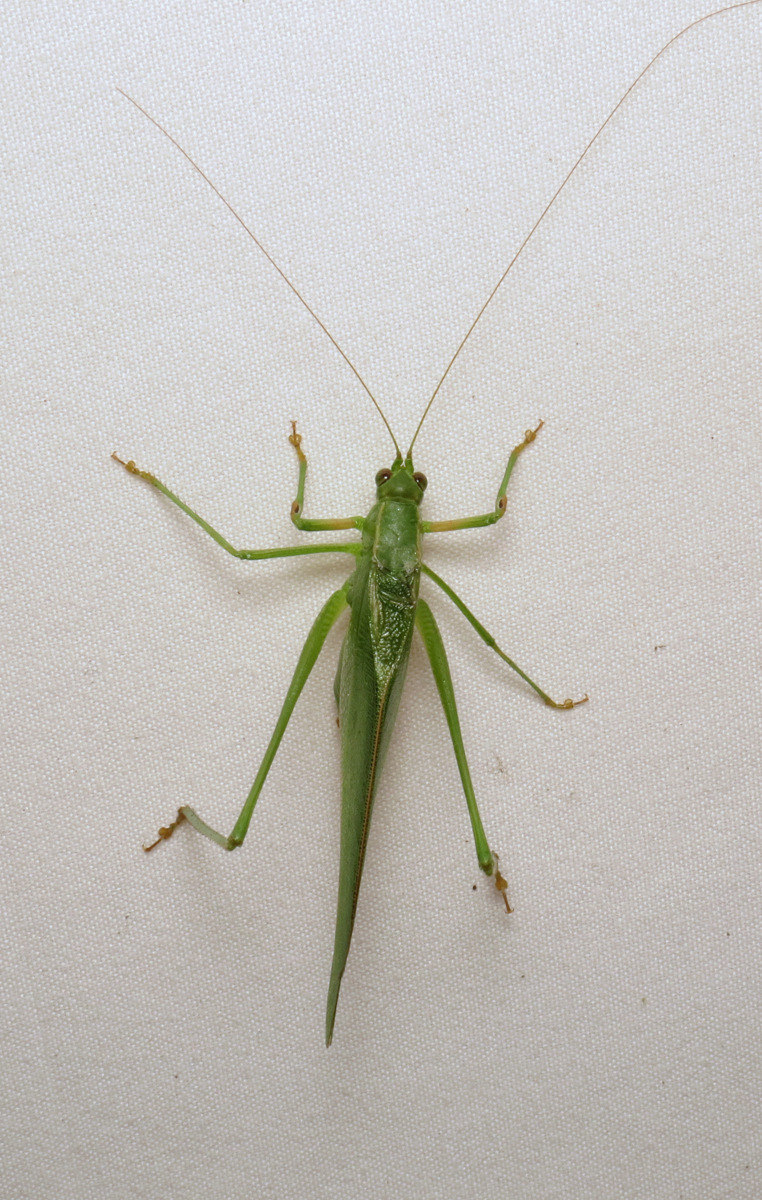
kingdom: Animalia
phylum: Arthropoda
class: Insecta
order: Orthoptera
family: Tettigoniidae
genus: Scudderia
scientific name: Scudderia furcata
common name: Fork-tailed bush katydid
